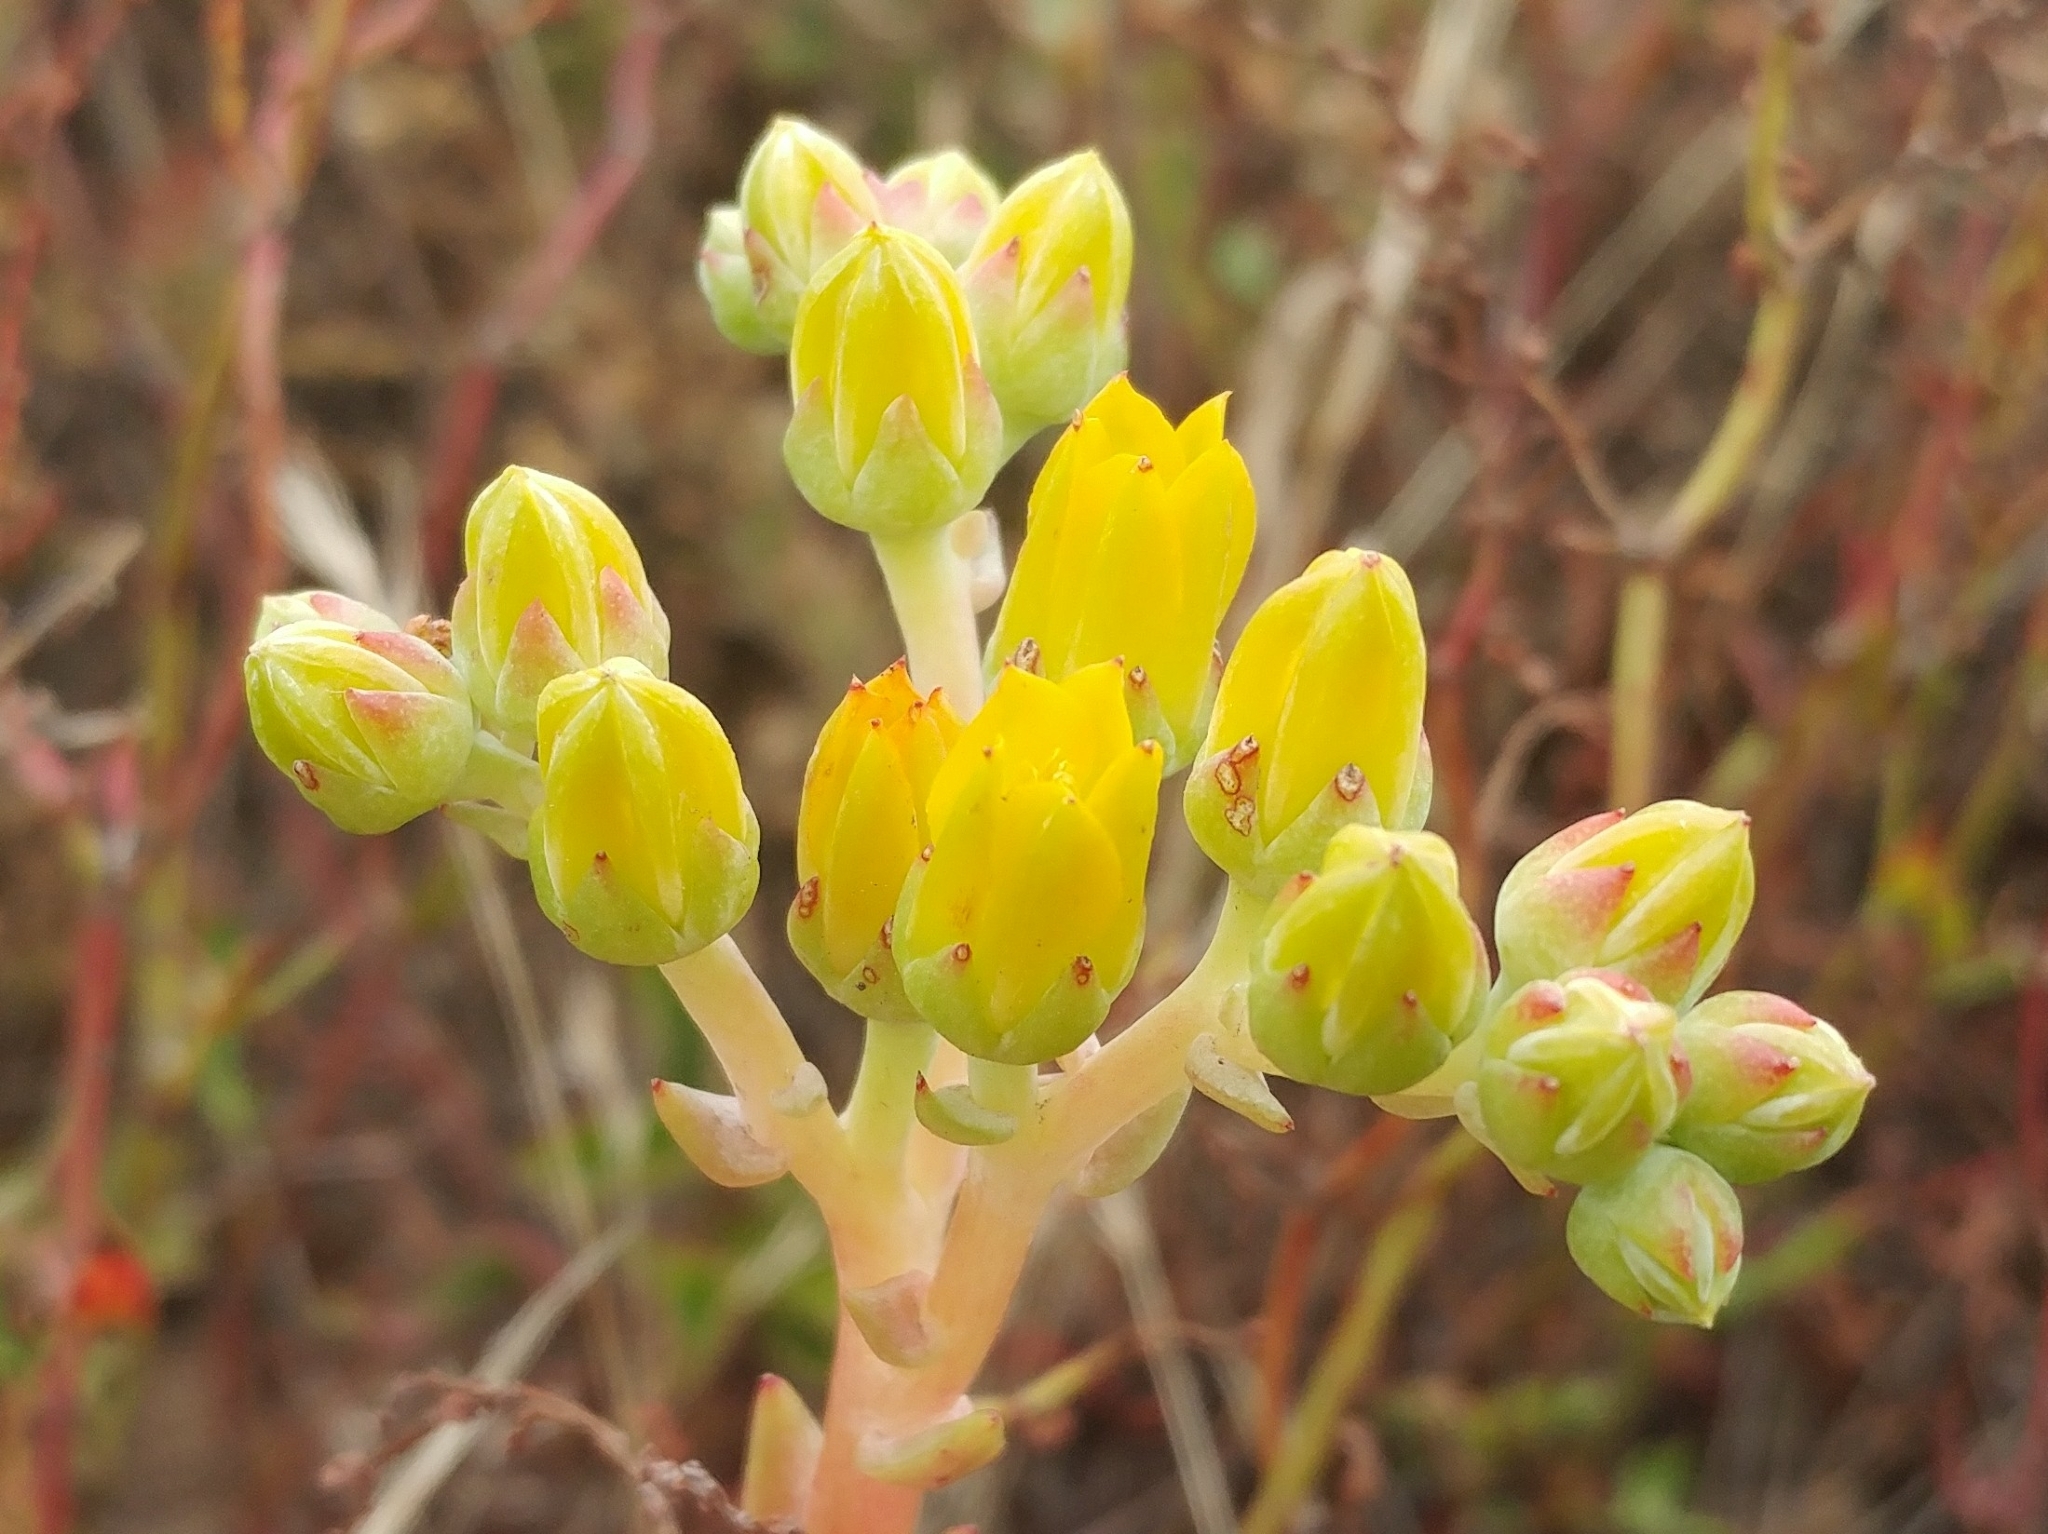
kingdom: Plantae
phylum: Tracheophyta
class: Magnoliopsida
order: Saxifragales
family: Crassulaceae
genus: Dudleya
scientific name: Dudleya caespitosa
